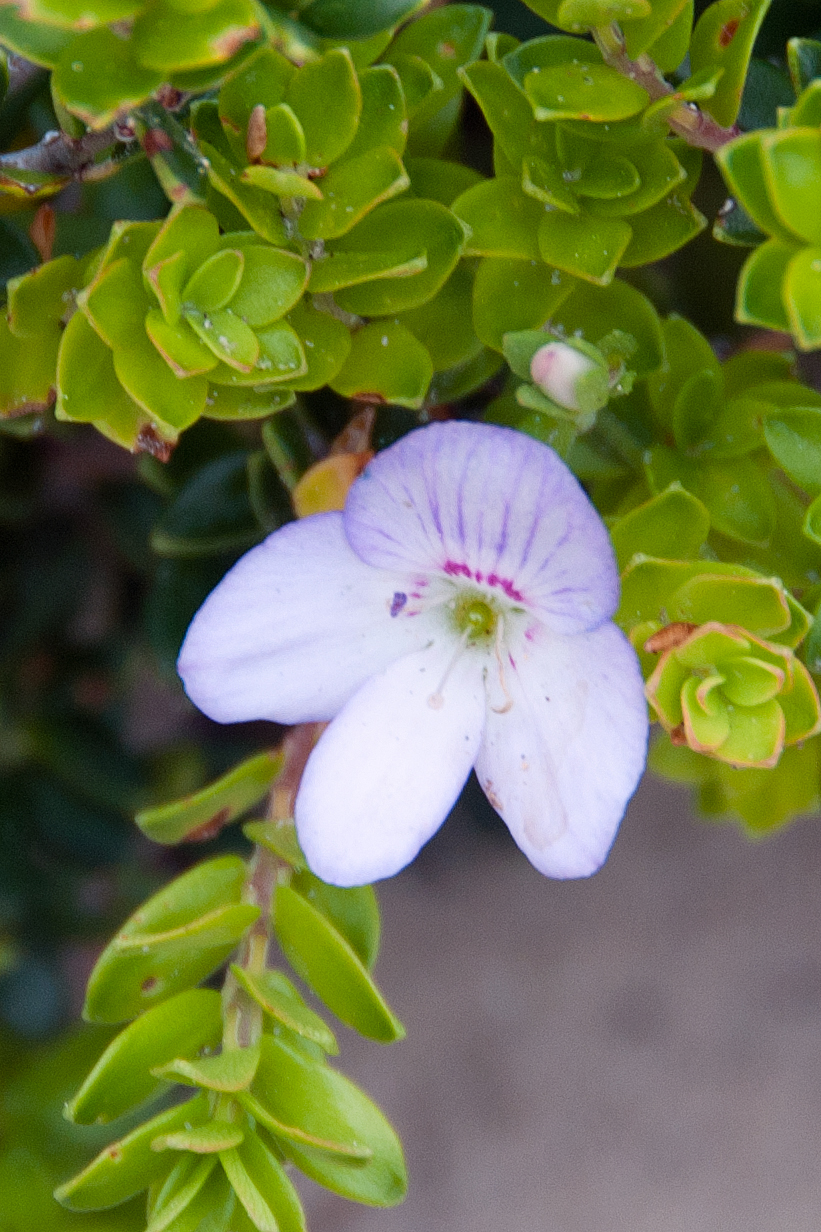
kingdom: Plantae
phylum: Tracheophyta
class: Magnoliopsida
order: Lamiales
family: Plantaginaceae
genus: Veronica
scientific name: Veronica hillebrandii
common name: Coast speedwell
